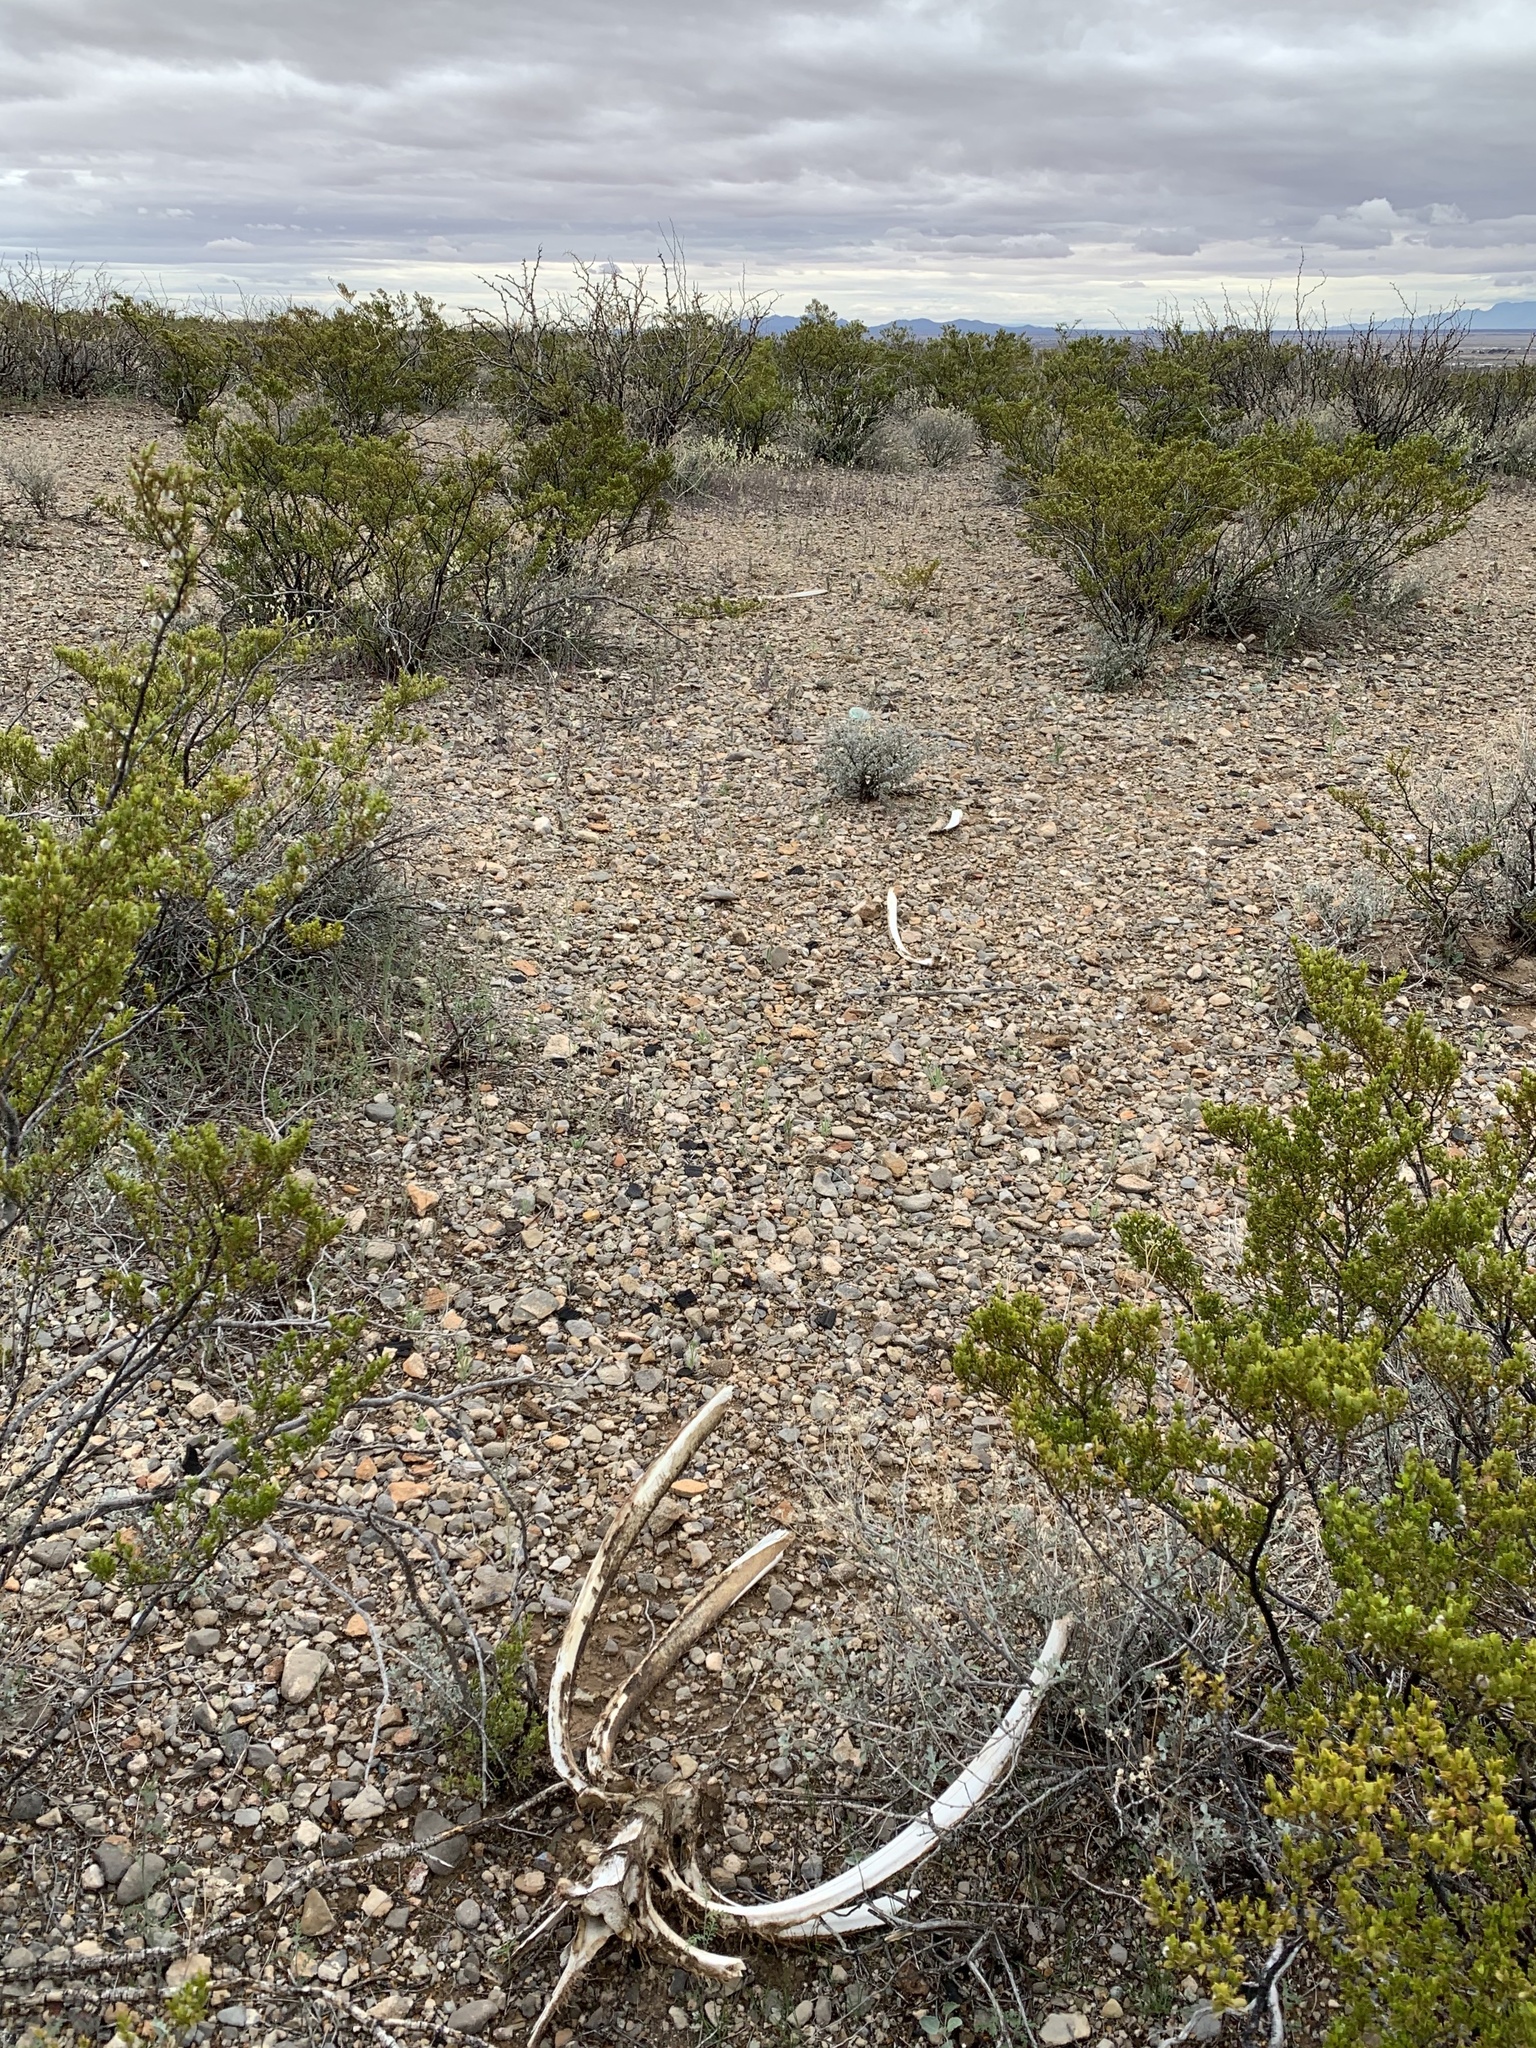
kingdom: Animalia
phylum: Chordata
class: Mammalia
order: Artiodactyla
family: Bovidae
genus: Ammotragus
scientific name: Ammotragus lervia
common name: Barbary sheep
